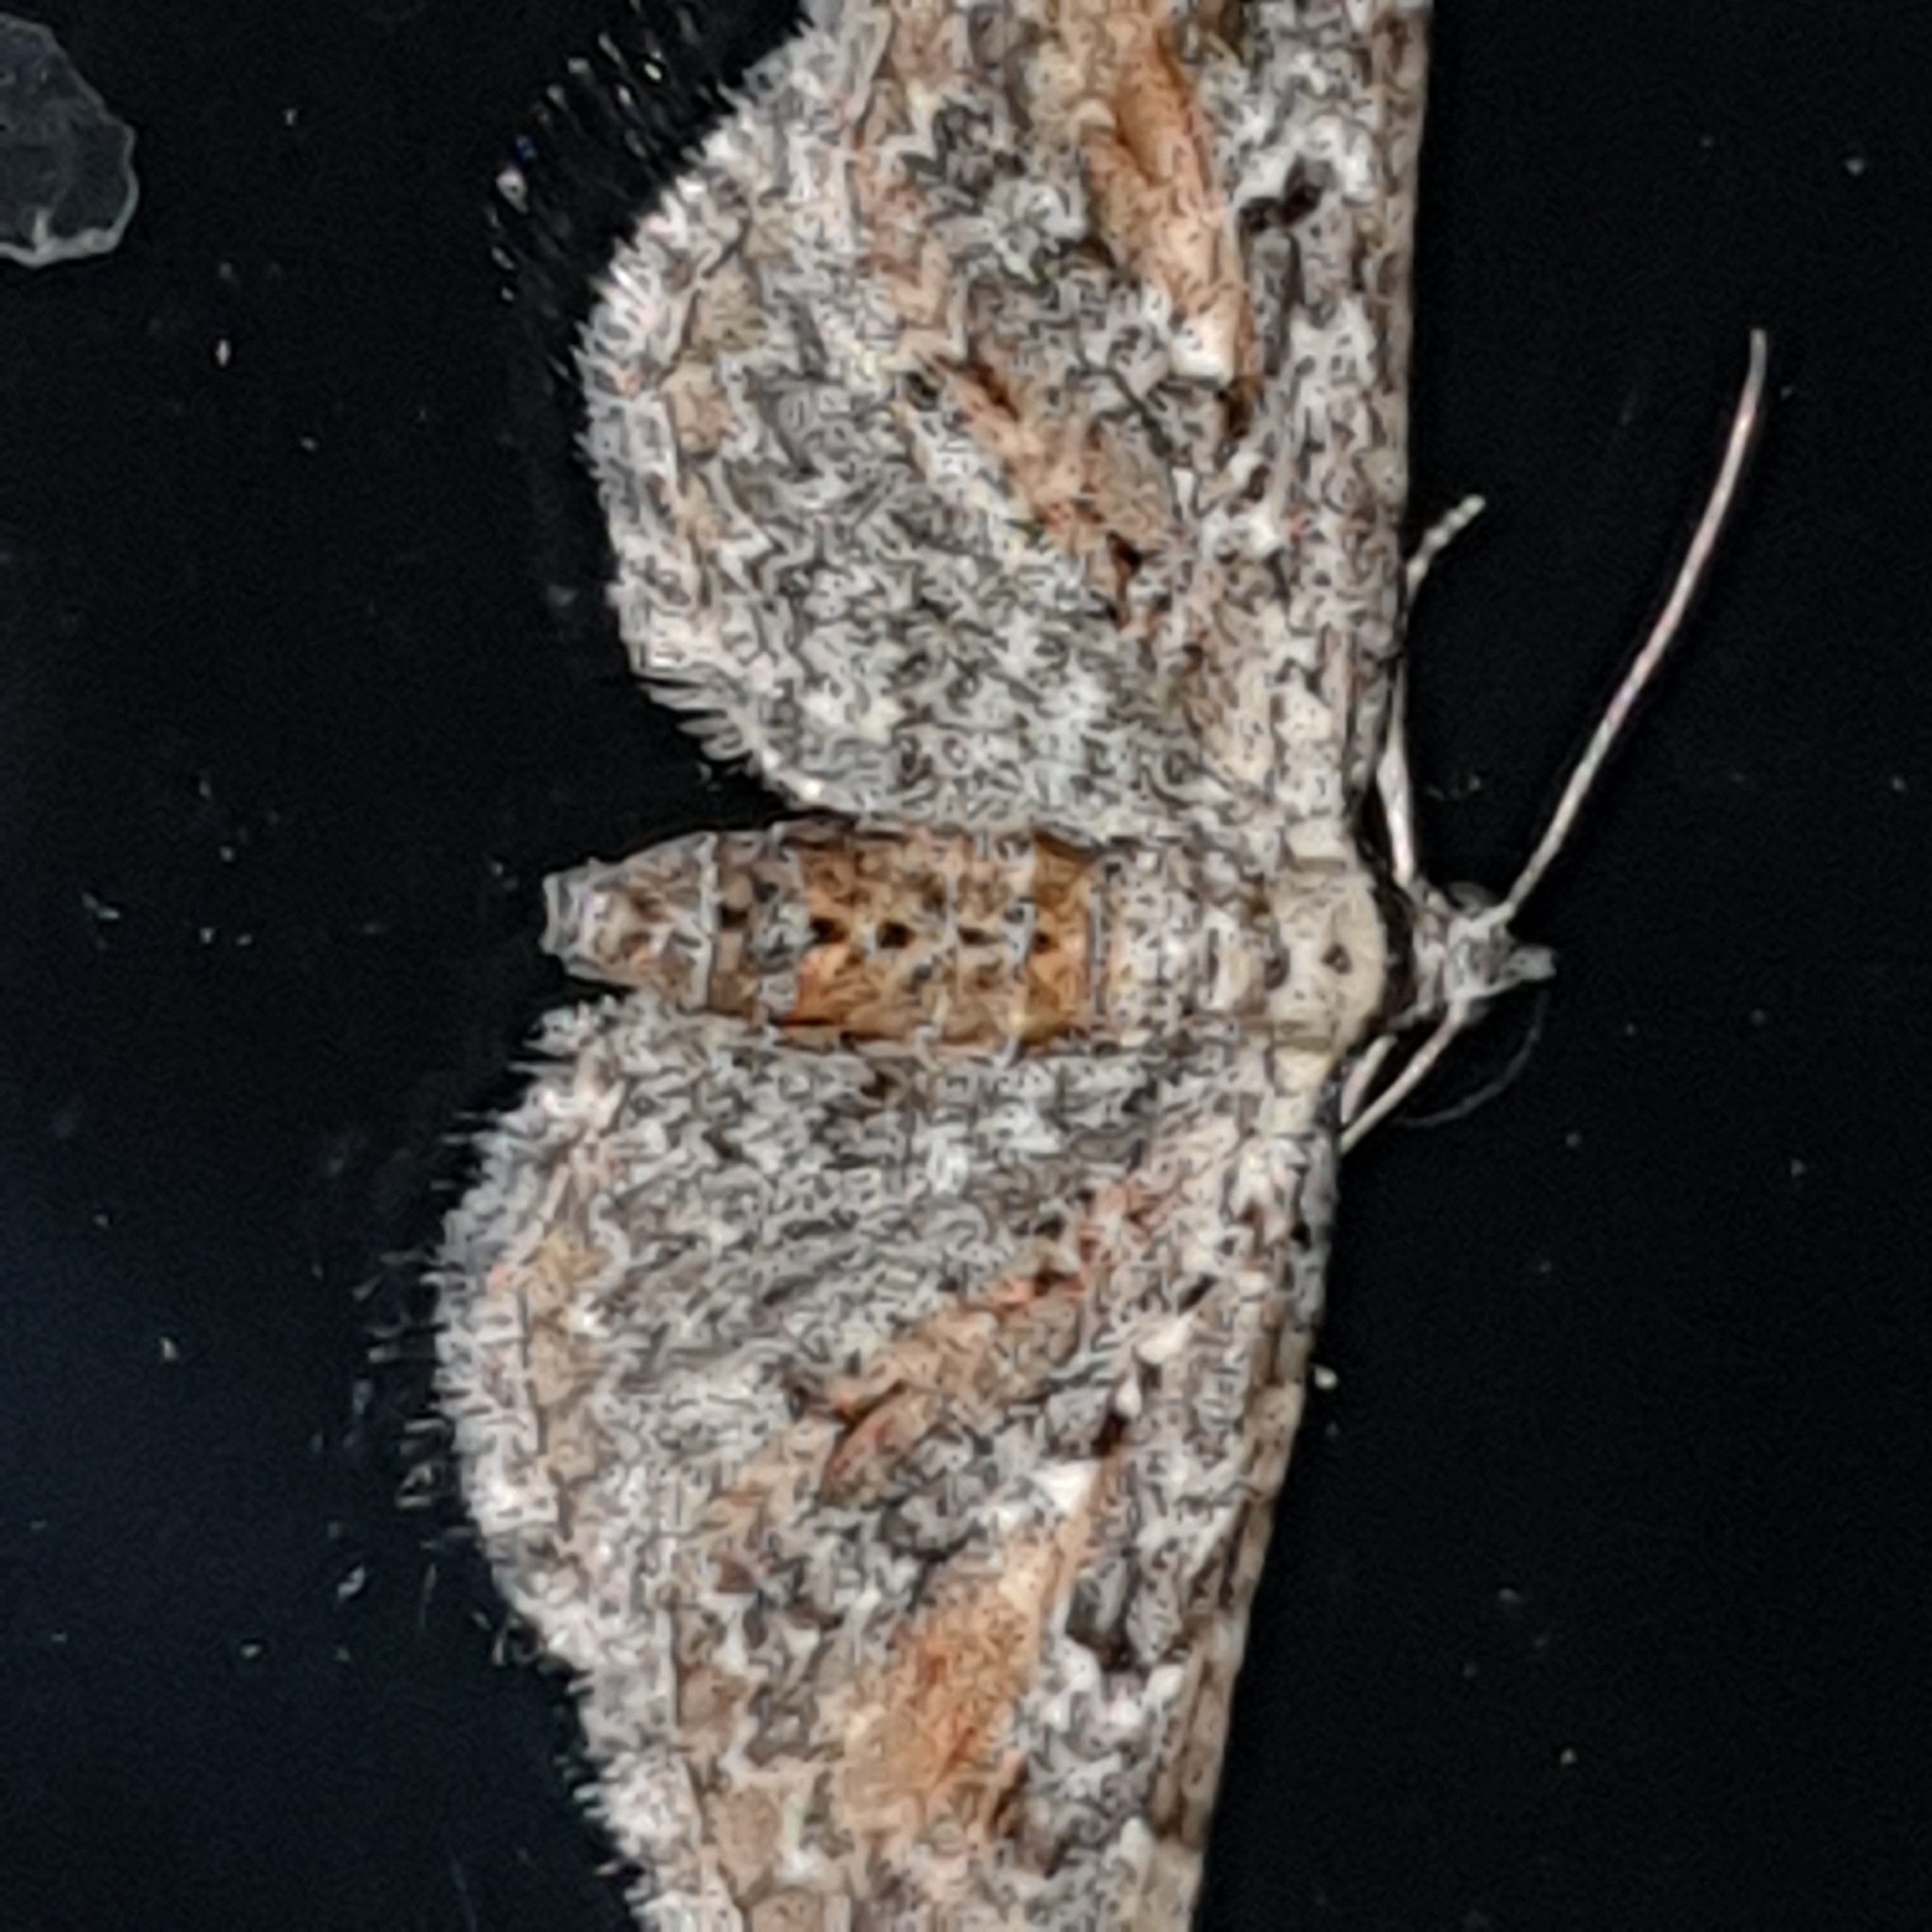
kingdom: Animalia
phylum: Arthropoda
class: Insecta
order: Lepidoptera
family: Geometridae
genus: Eupithecia
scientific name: Eupithecia icterata
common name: Tawny speckled pug
